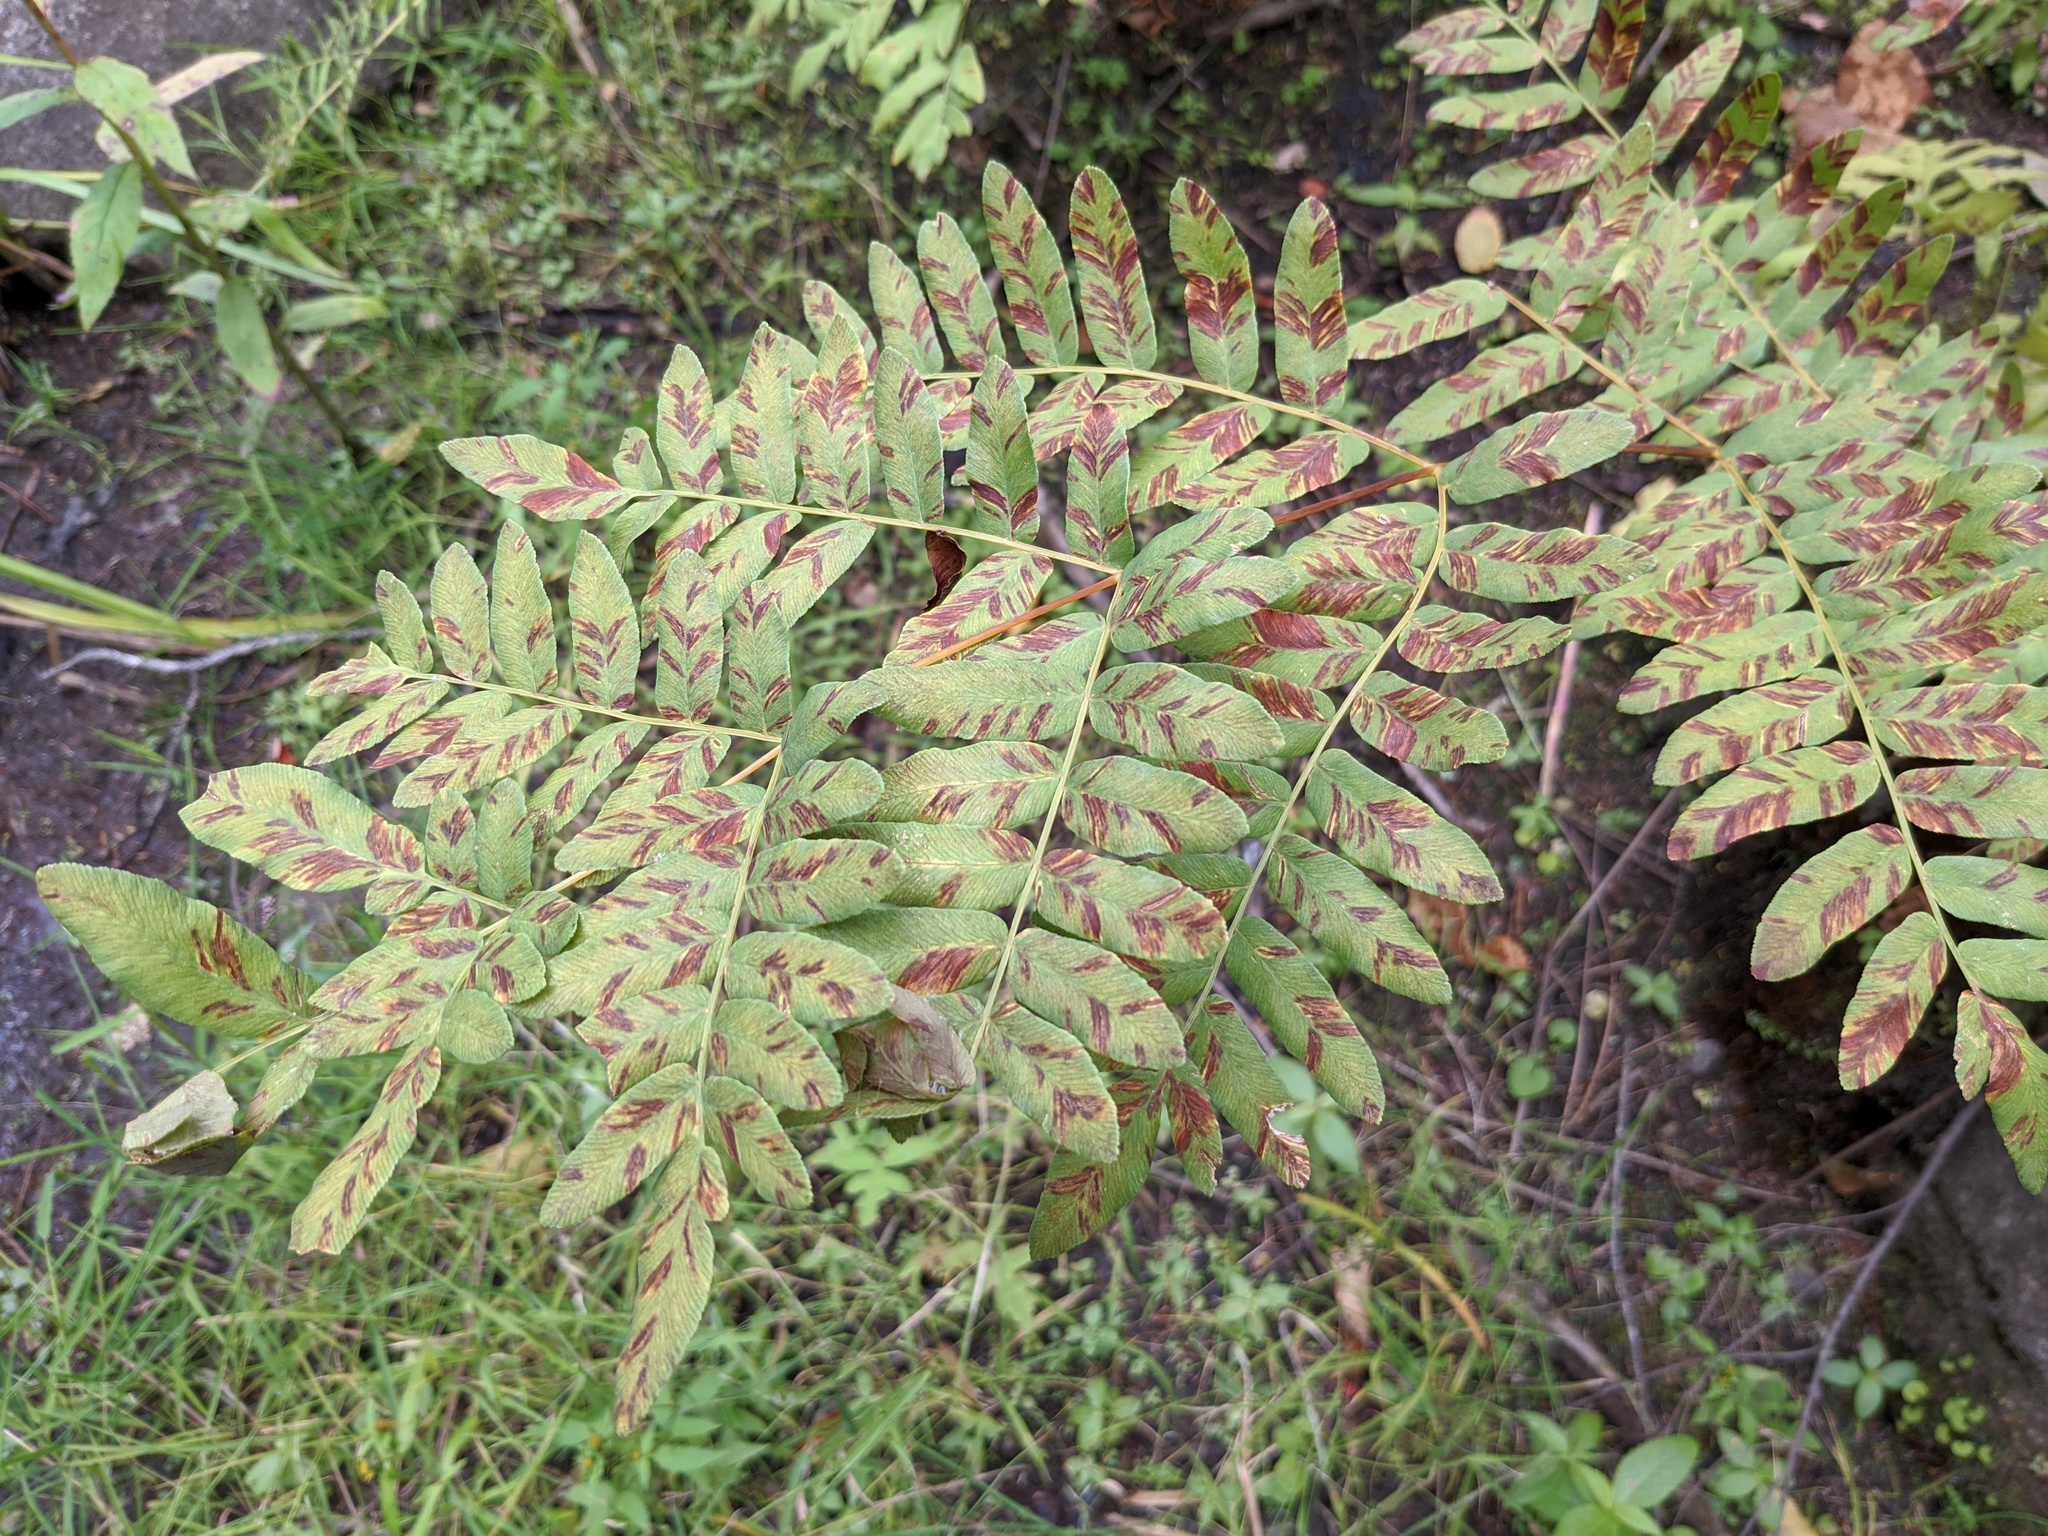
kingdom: Plantae
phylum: Tracheophyta
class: Polypodiopsida
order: Osmundales
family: Osmundaceae
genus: Osmunda
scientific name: Osmunda spectabilis
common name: American royal fern
